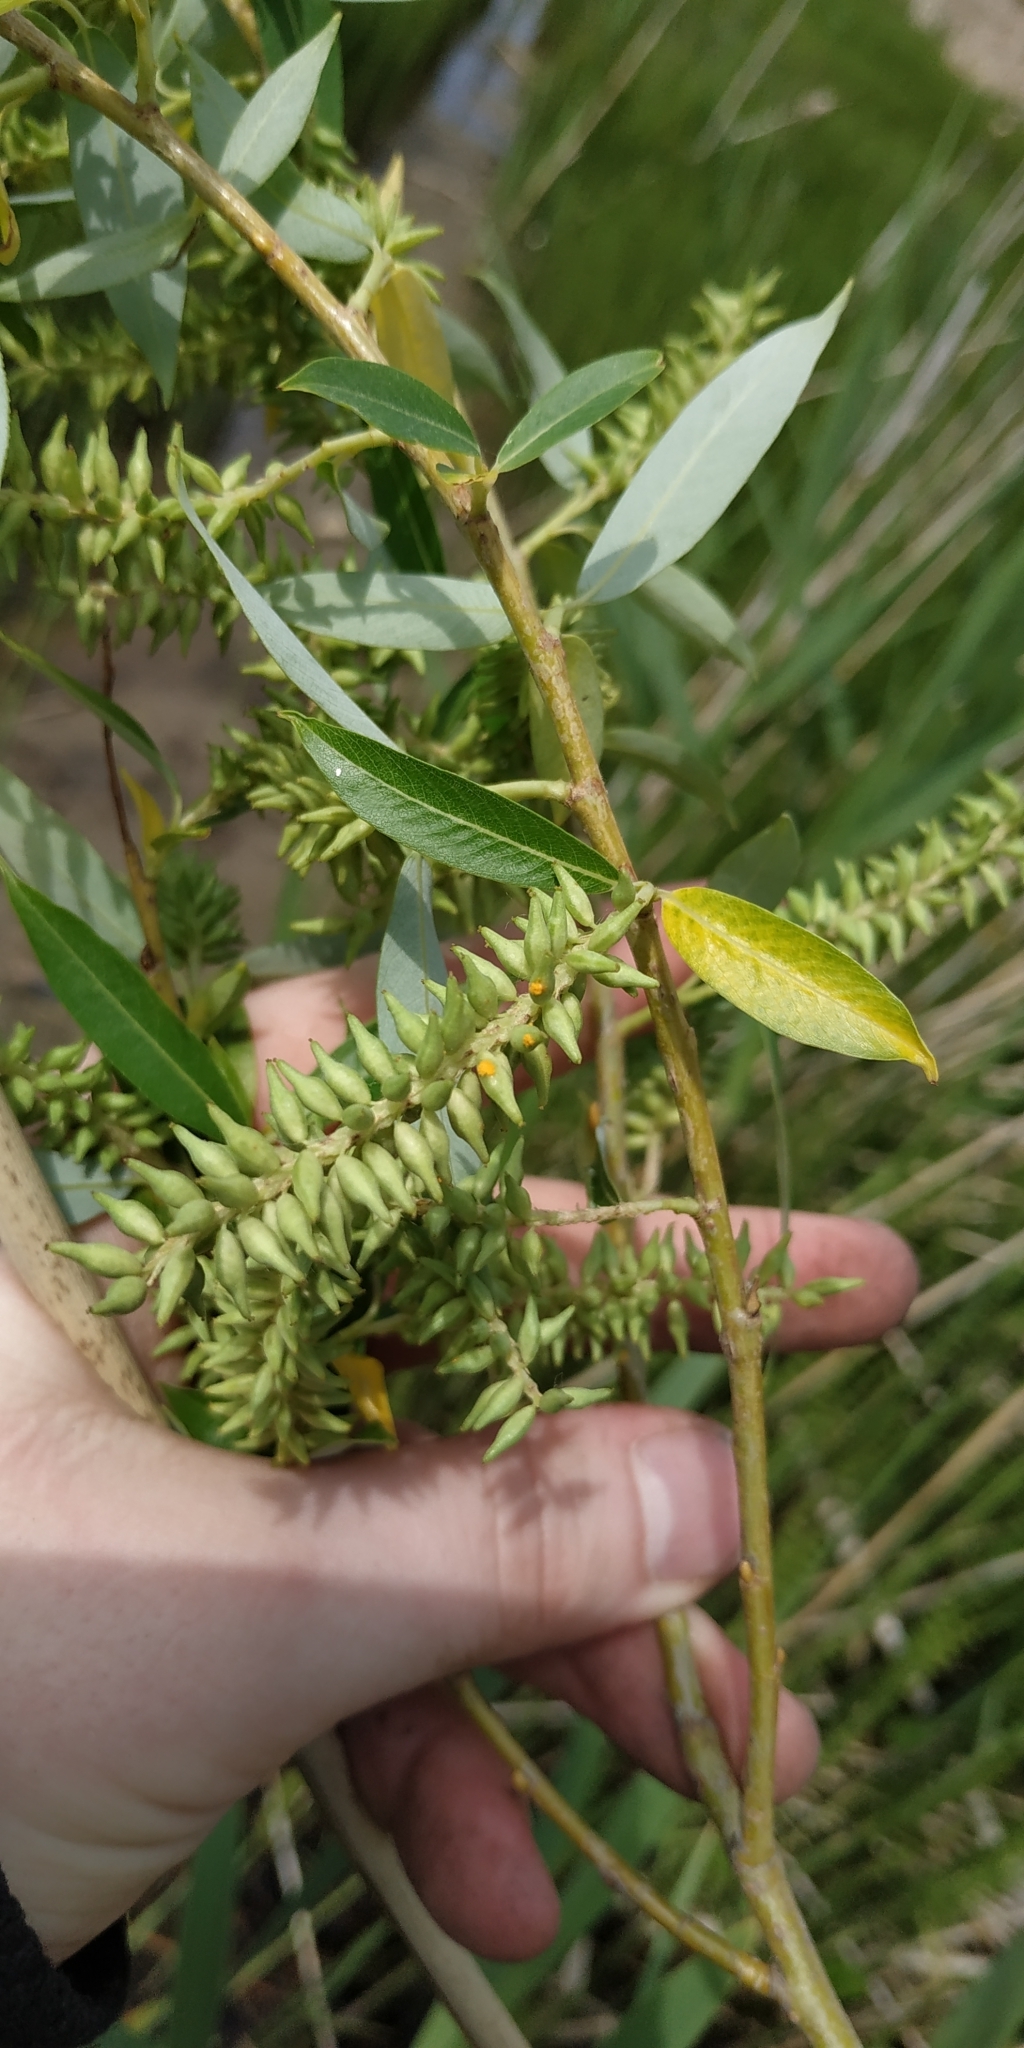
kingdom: Plantae
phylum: Tracheophyta
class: Magnoliopsida
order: Malpighiales
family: Salicaceae
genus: Salix
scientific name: Salix fragilis
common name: Crack willow
